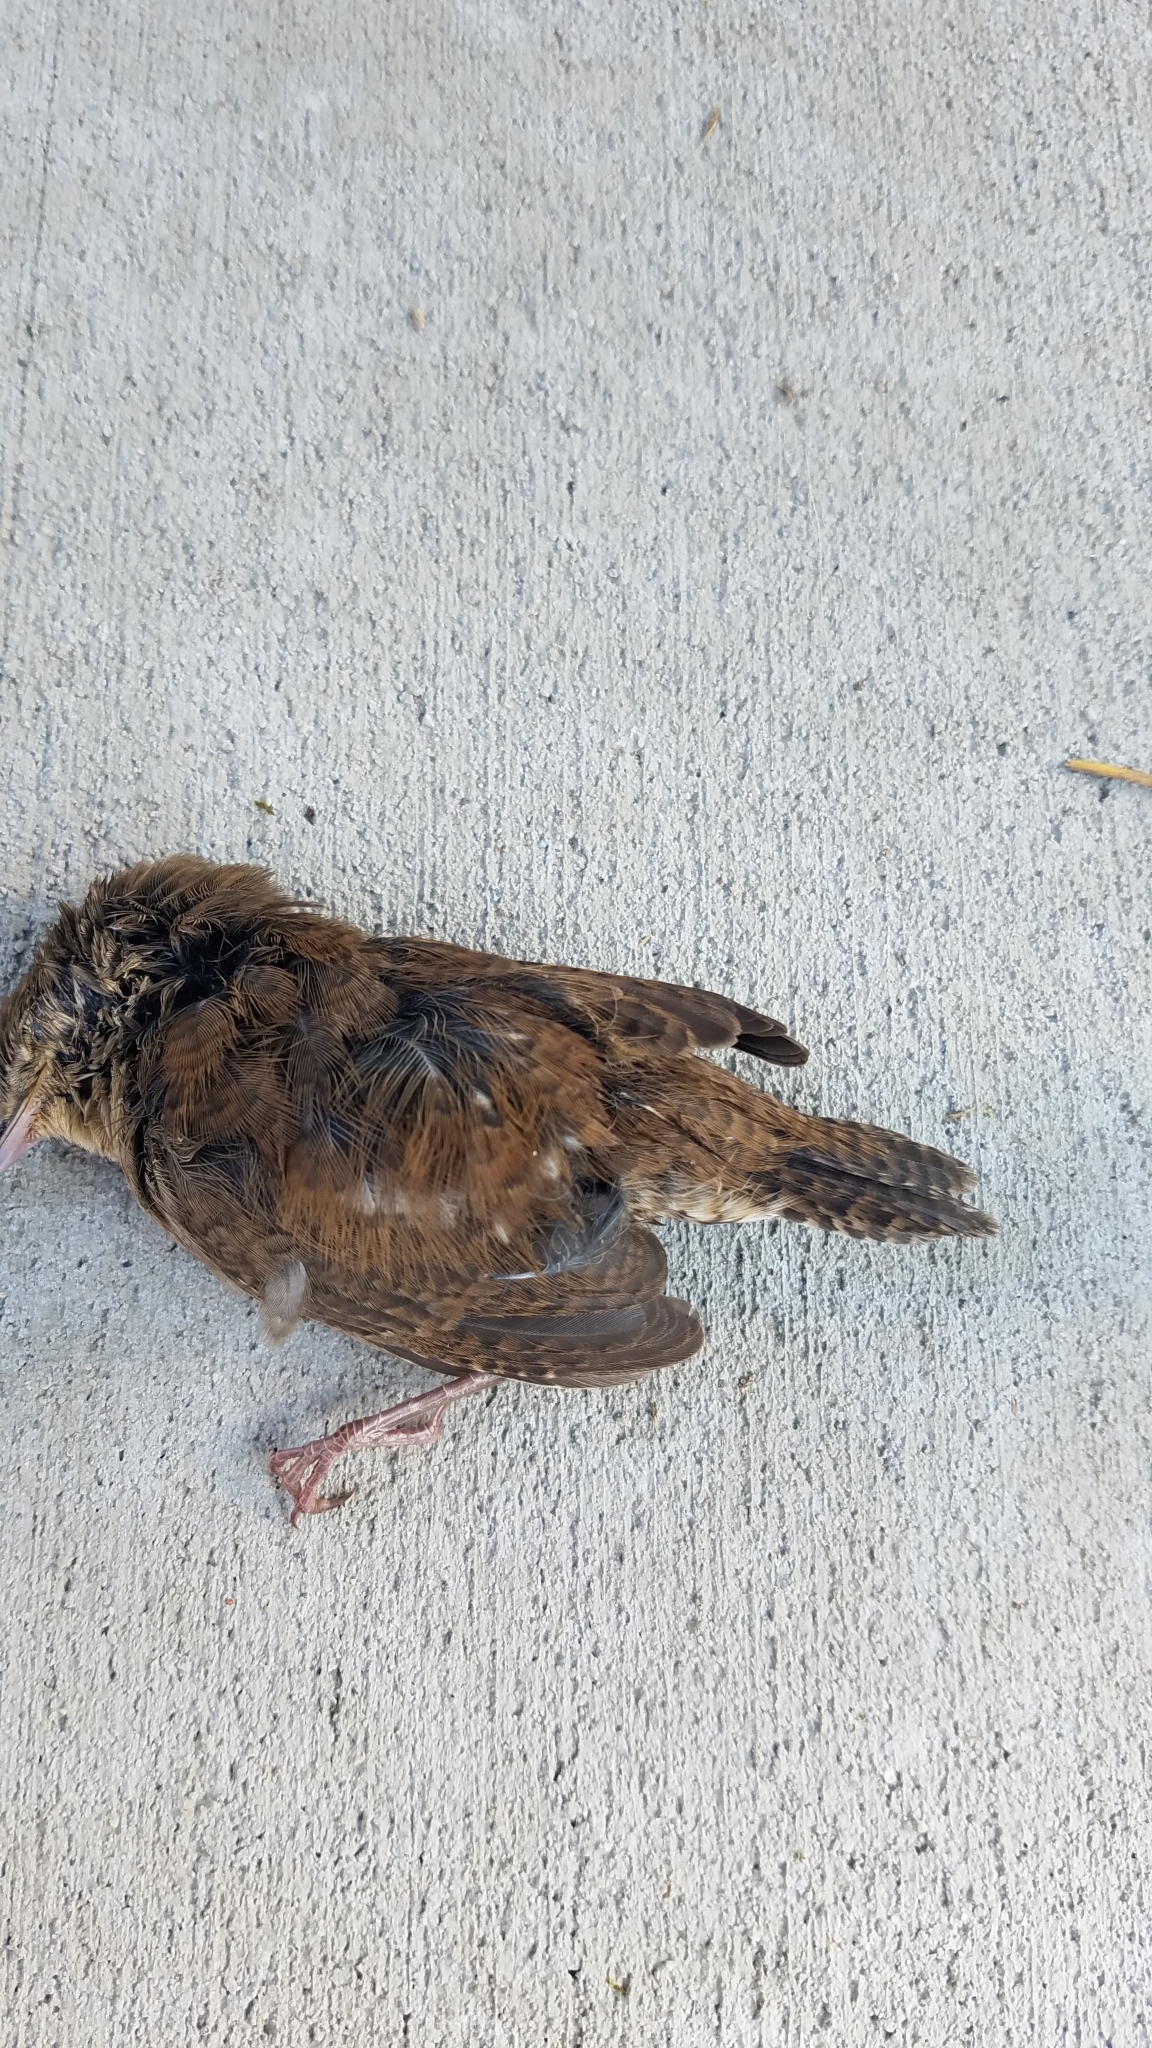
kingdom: Animalia
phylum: Chordata
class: Aves
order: Passeriformes
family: Troglodytidae
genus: Troglodytes
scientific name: Troglodytes aedon
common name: House wren
